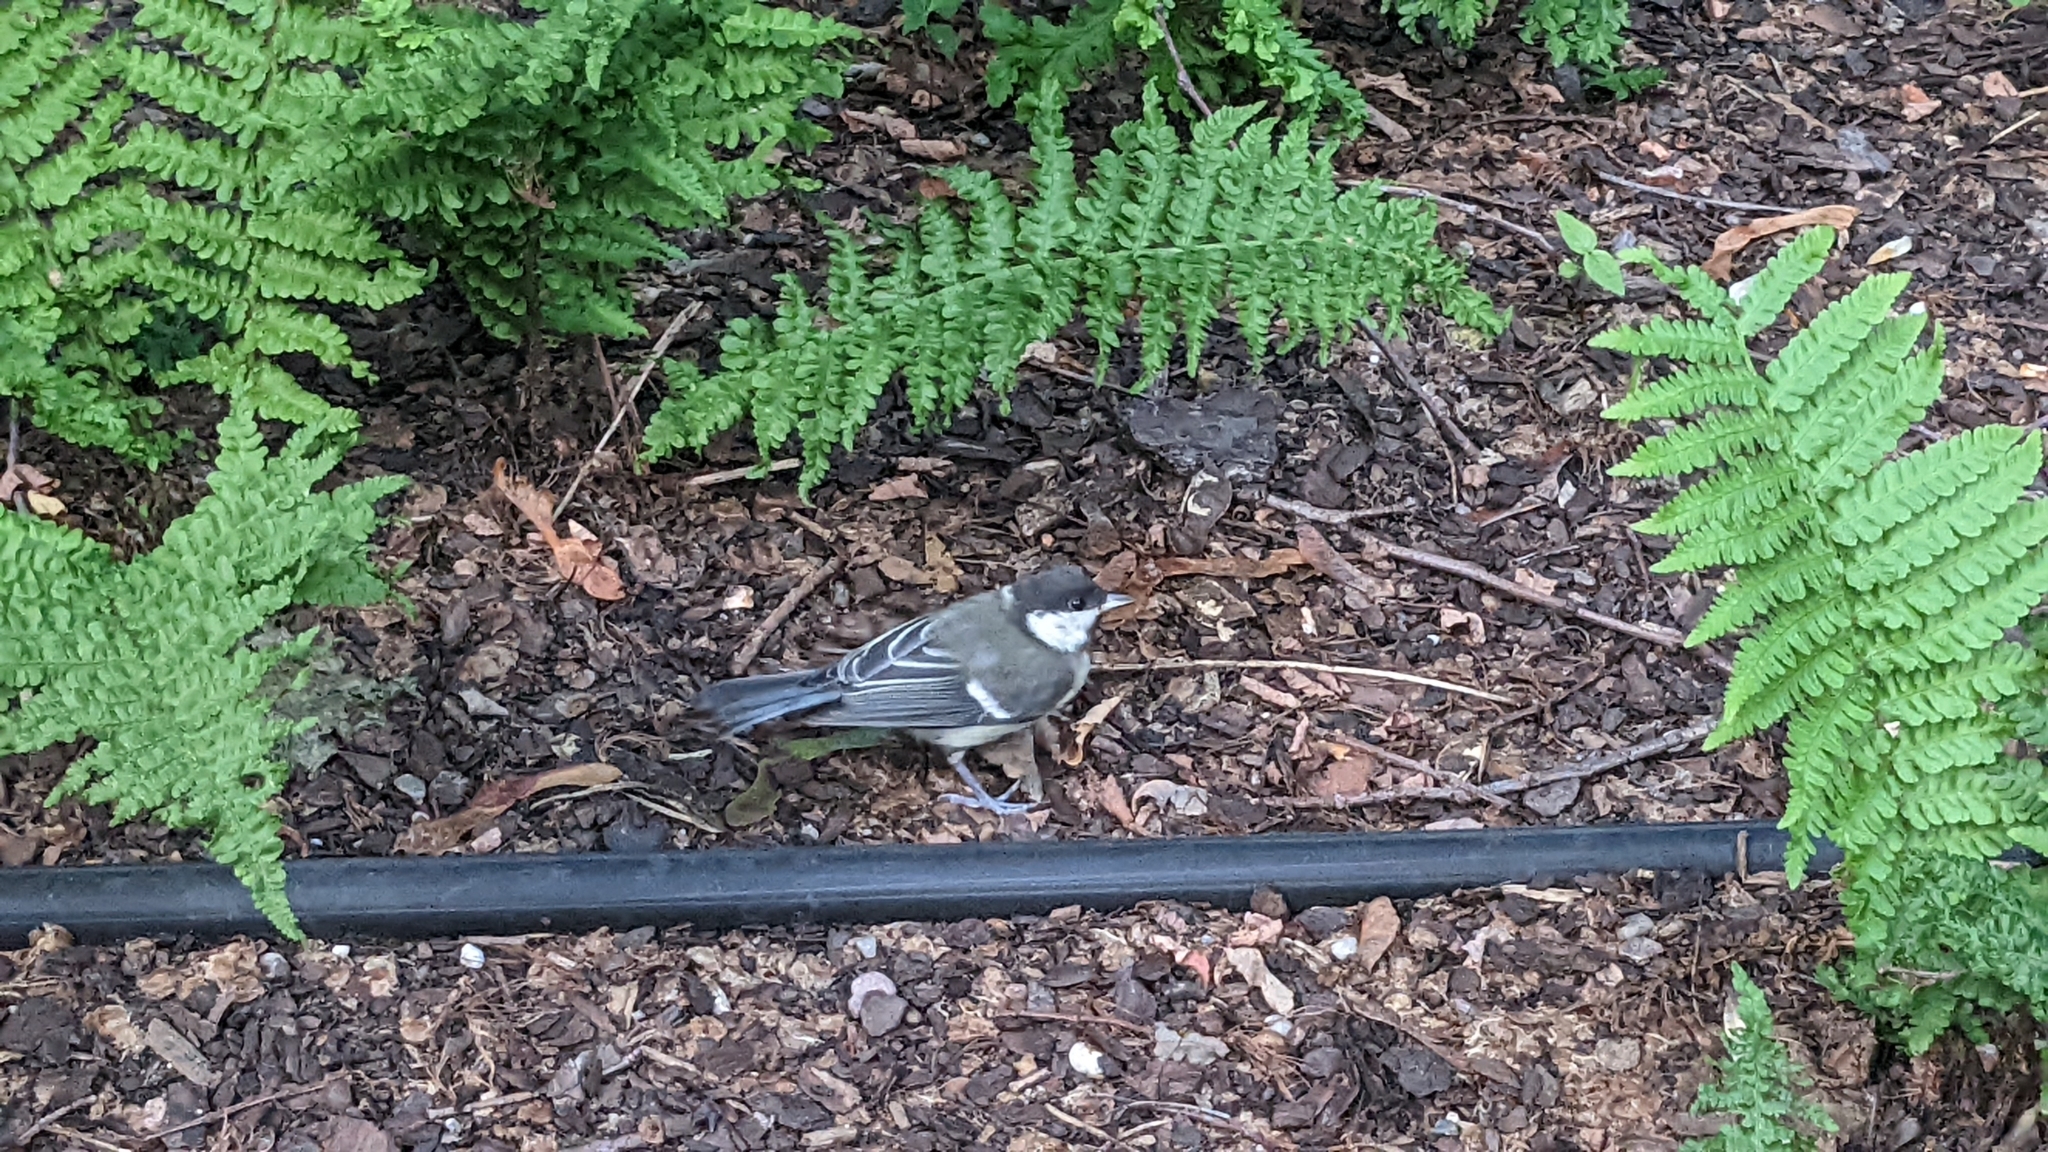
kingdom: Animalia
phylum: Chordata
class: Aves
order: Passeriformes
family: Paridae
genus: Parus
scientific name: Parus major
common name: Great tit
